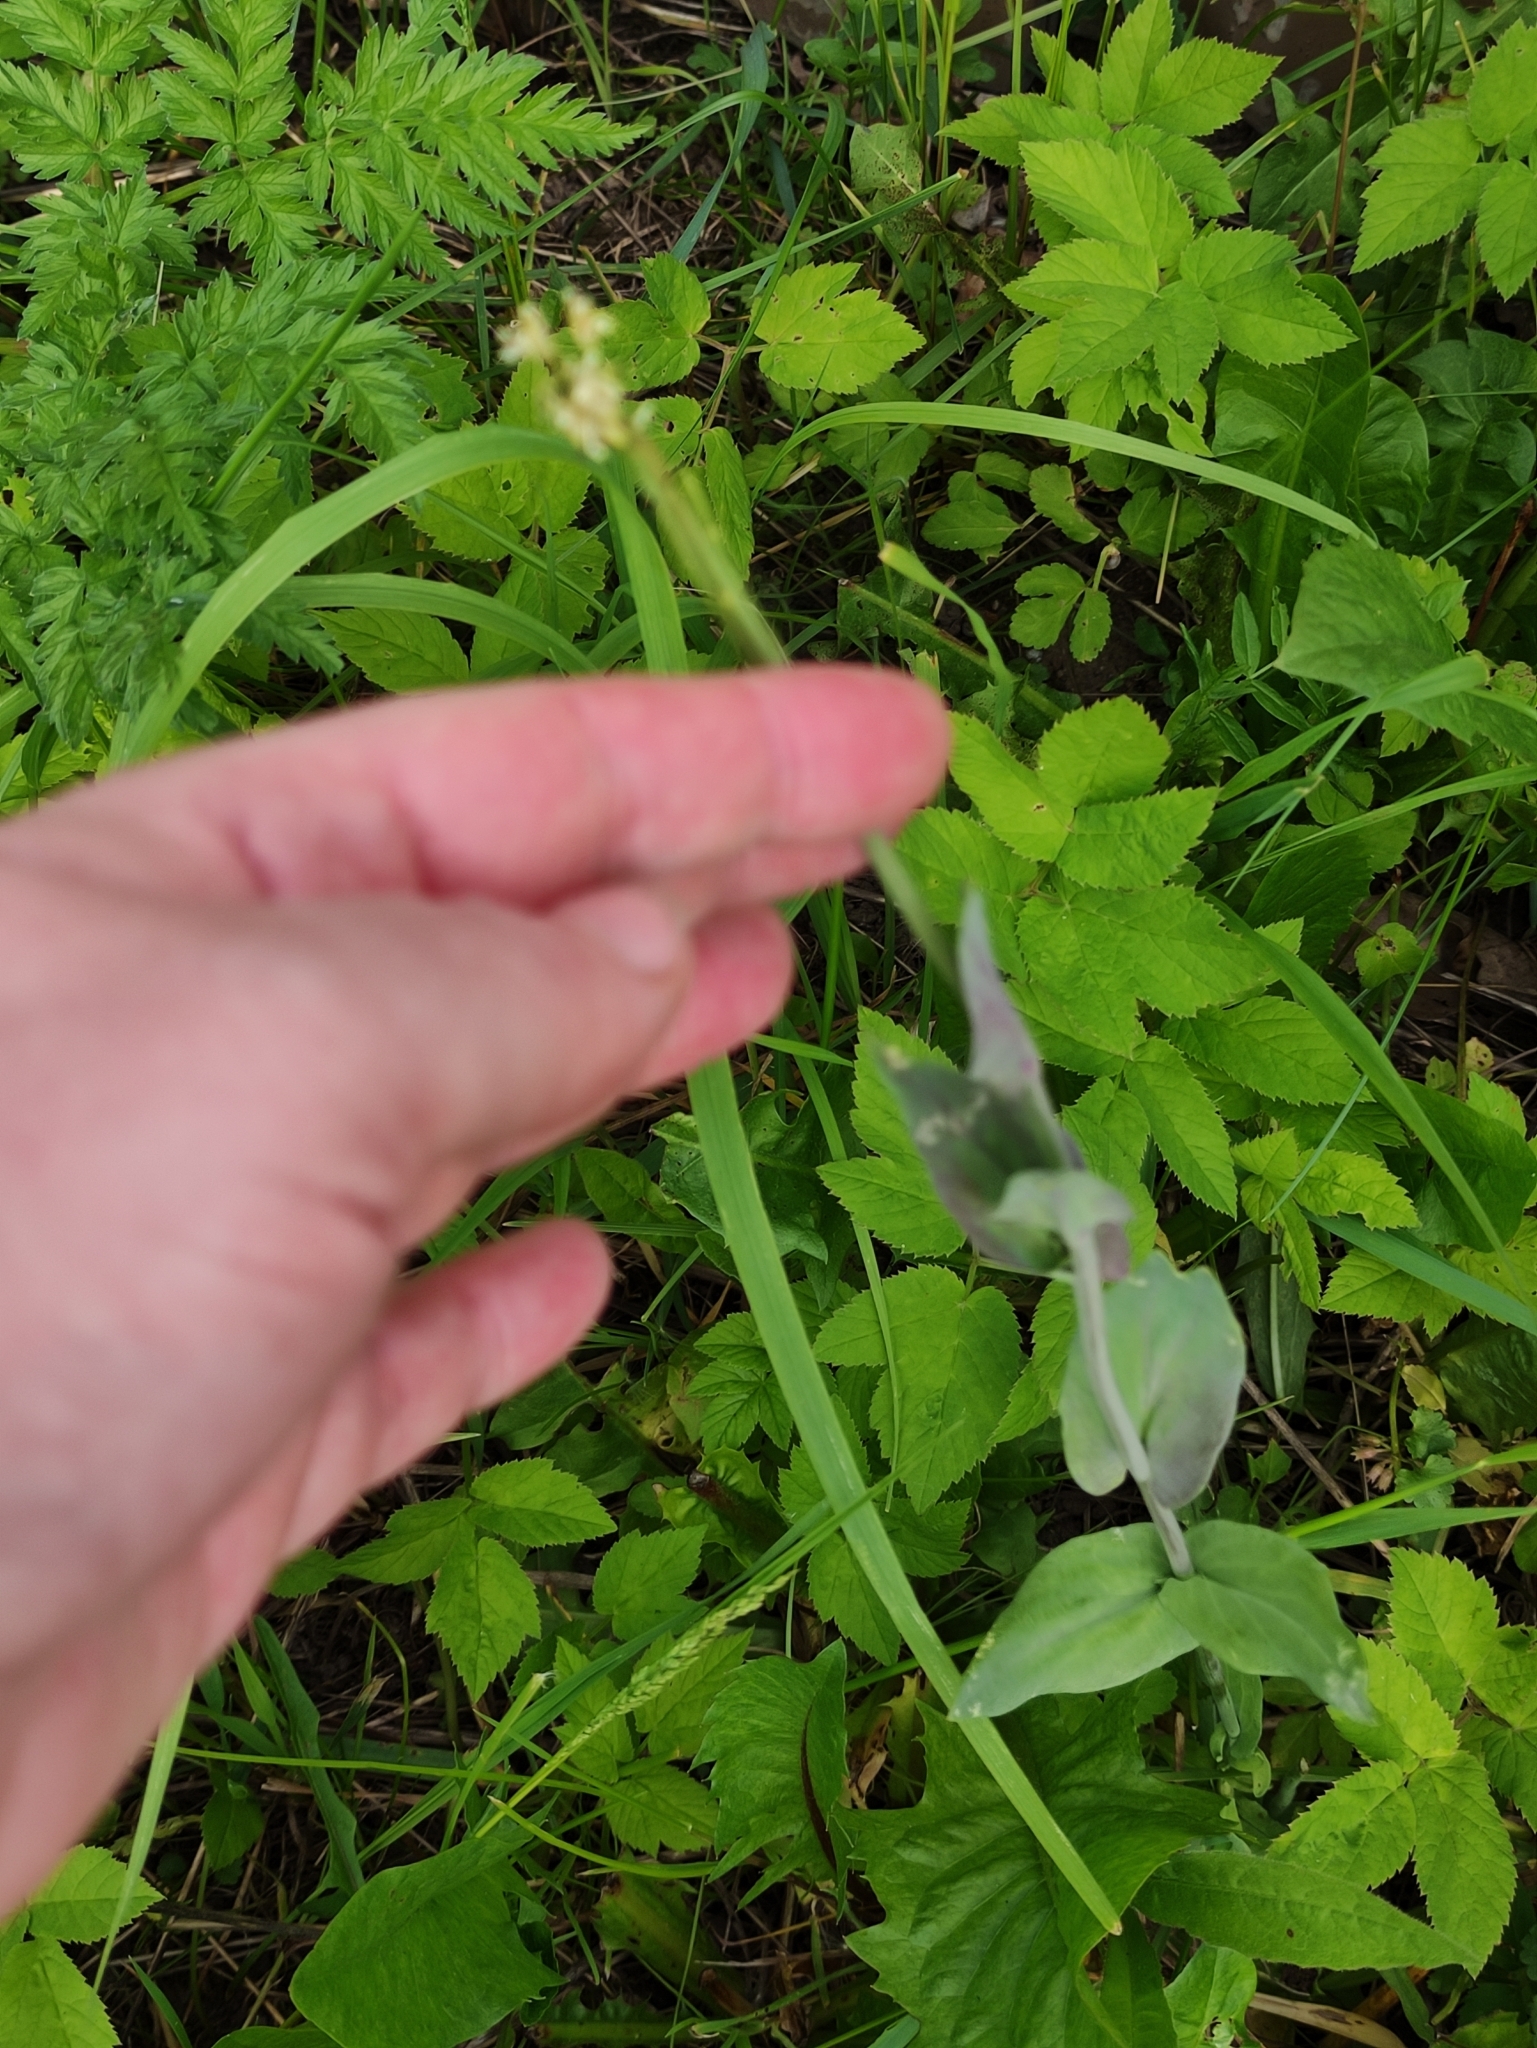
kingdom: Plantae
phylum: Tracheophyta
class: Magnoliopsida
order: Brassicales
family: Brassicaceae
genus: Turritis
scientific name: Turritis glabra
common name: Tower rockcress
